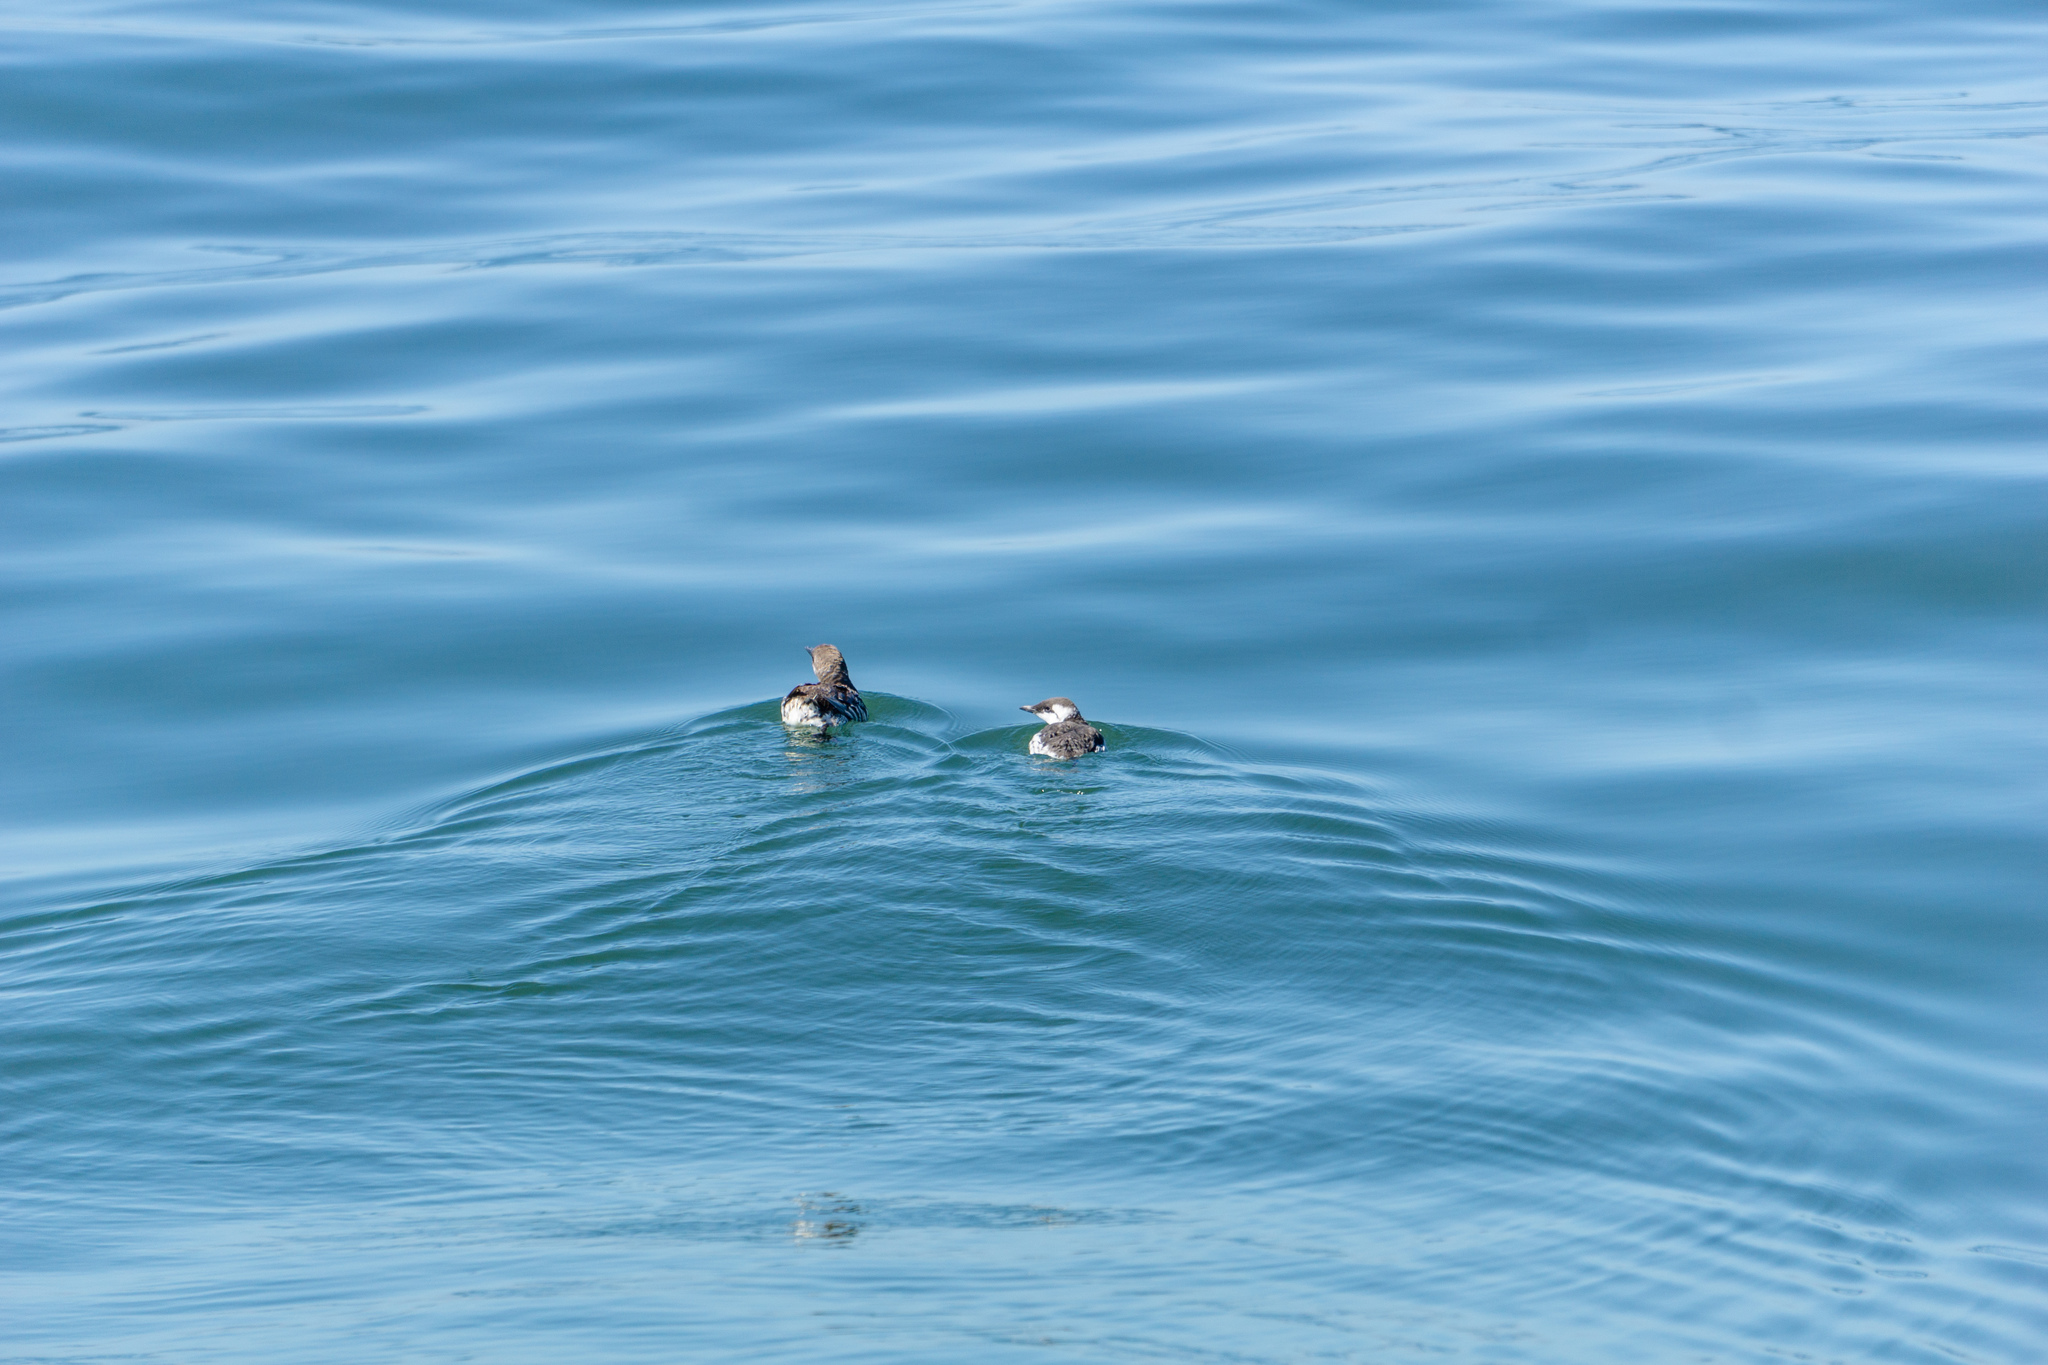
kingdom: Animalia
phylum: Chordata
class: Aves
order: Charadriiformes
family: Alcidae
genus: Uria
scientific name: Uria aalge
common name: Common murre
